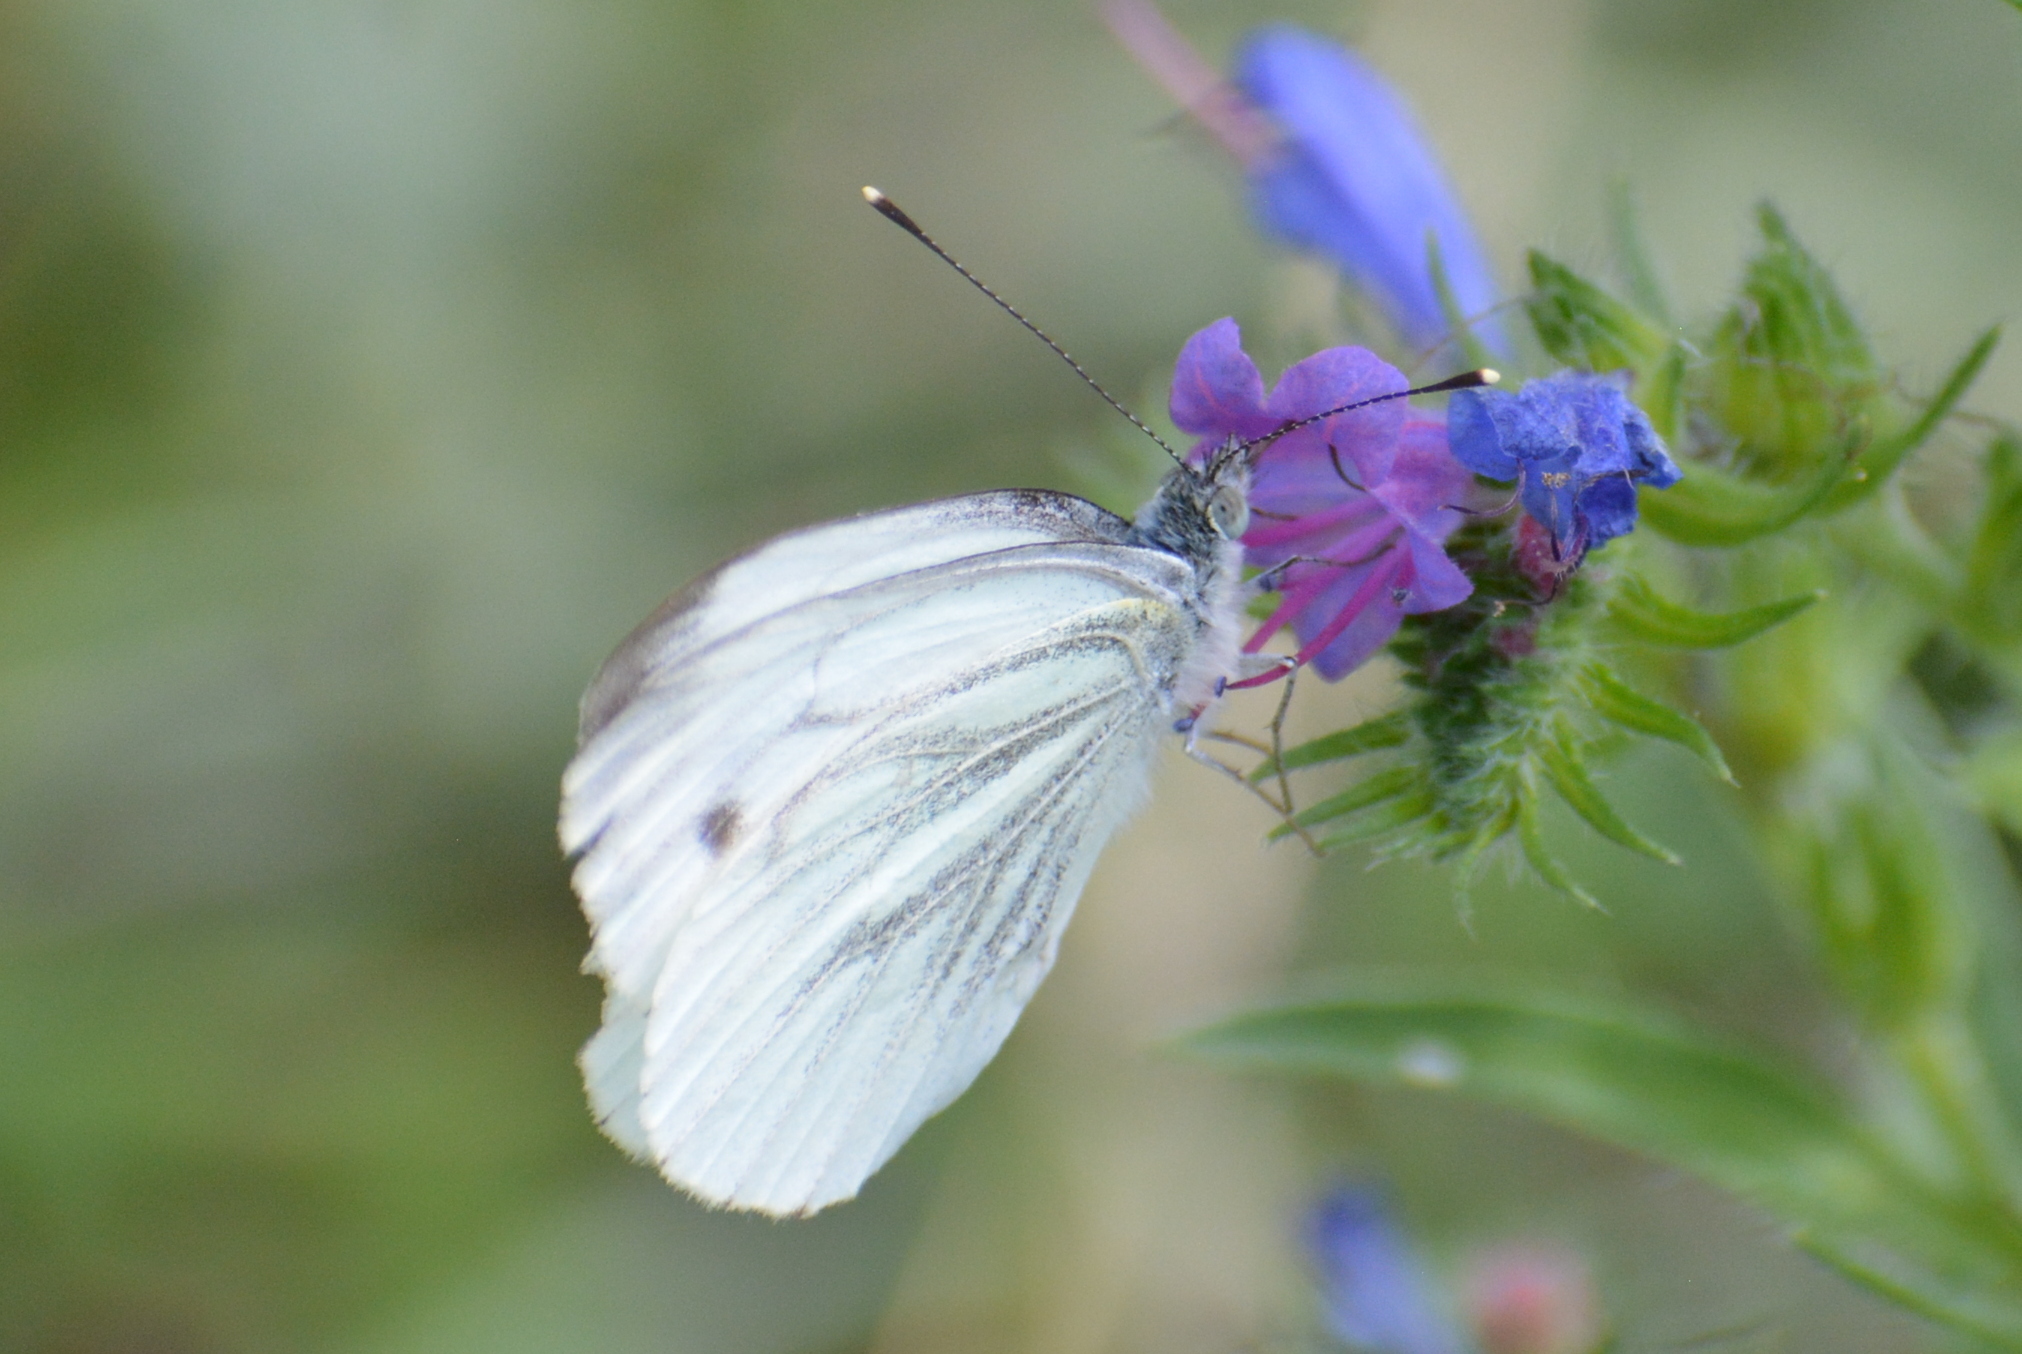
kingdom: Animalia
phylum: Arthropoda
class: Insecta
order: Lepidoptera
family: Pieridae
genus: Pieris
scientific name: Pieris napi
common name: Green-veined white
